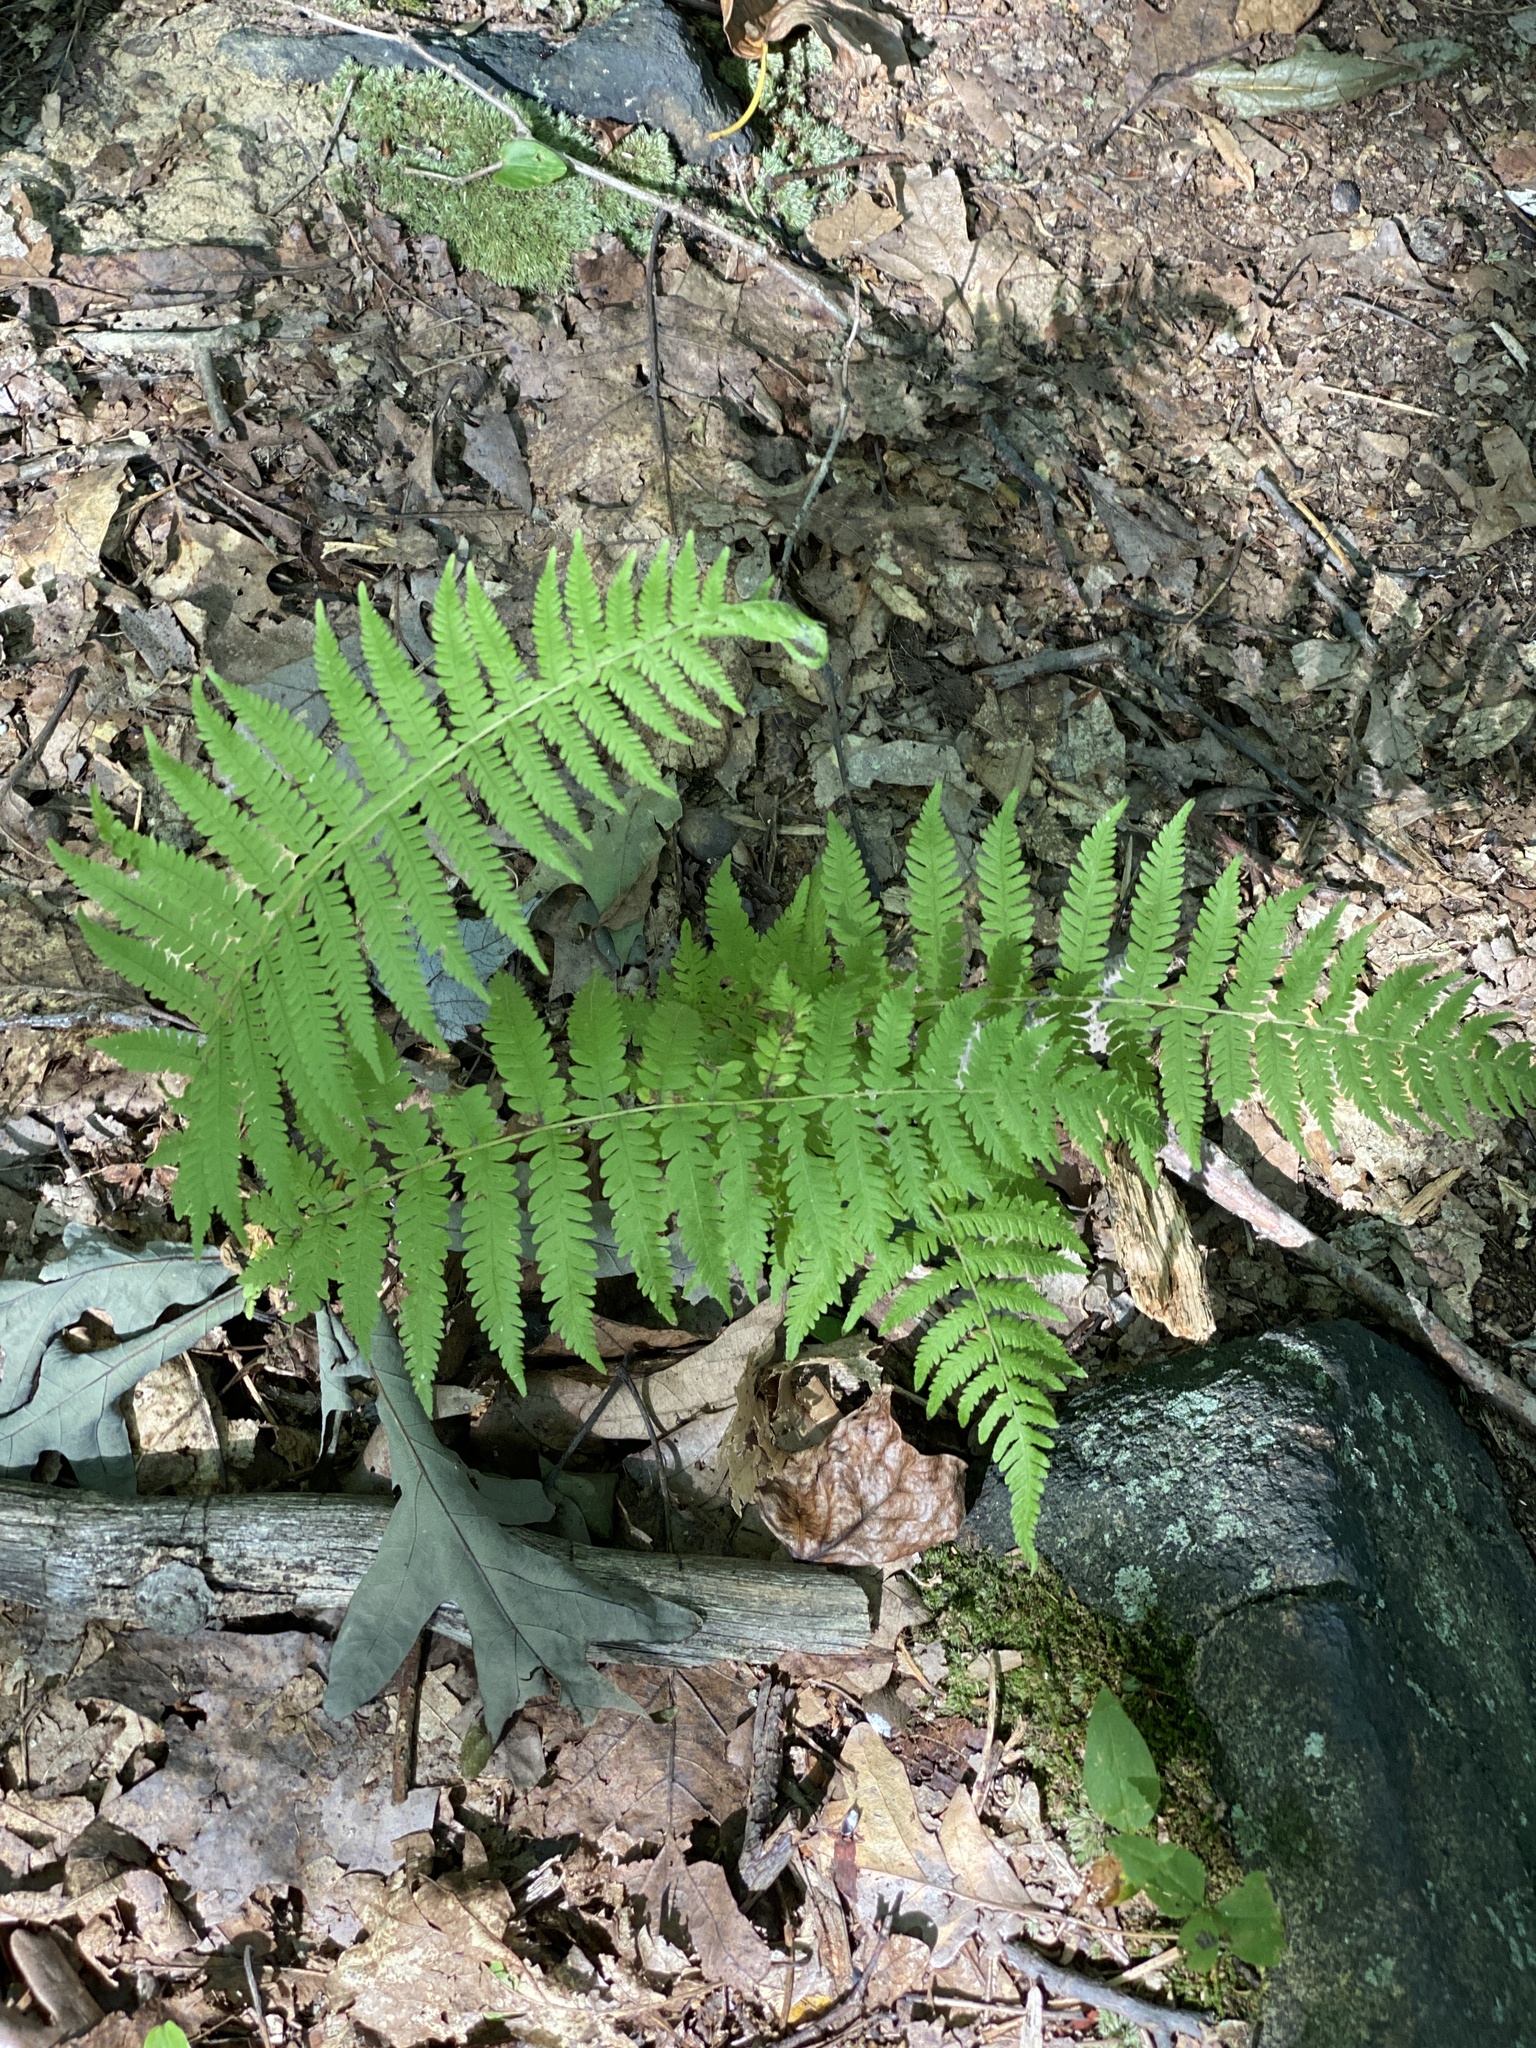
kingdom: Plantae
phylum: Tracheophyta
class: Polypodiopsida
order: Polypodiales
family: Thelypteridaceae
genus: Amauropelta
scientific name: Amauropelta noveboracensis
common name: New york fern
